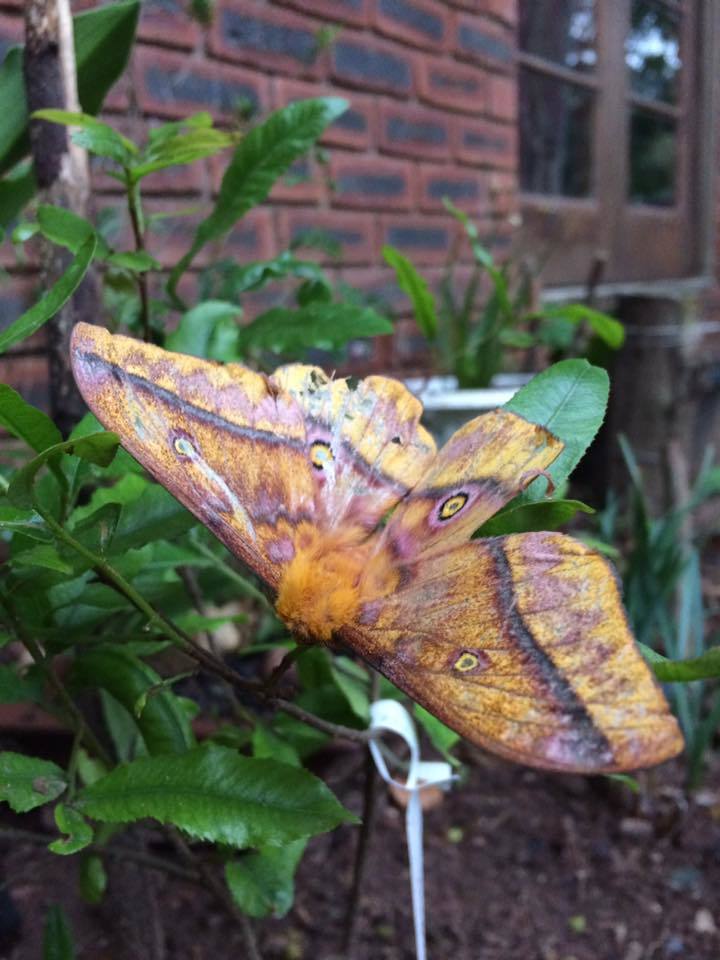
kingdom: Animalia
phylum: Arthropoda
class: Insecta
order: Lepidoptera
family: Saturniidae
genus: Nudaurelia
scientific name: Nudaurelia wahlbergi
